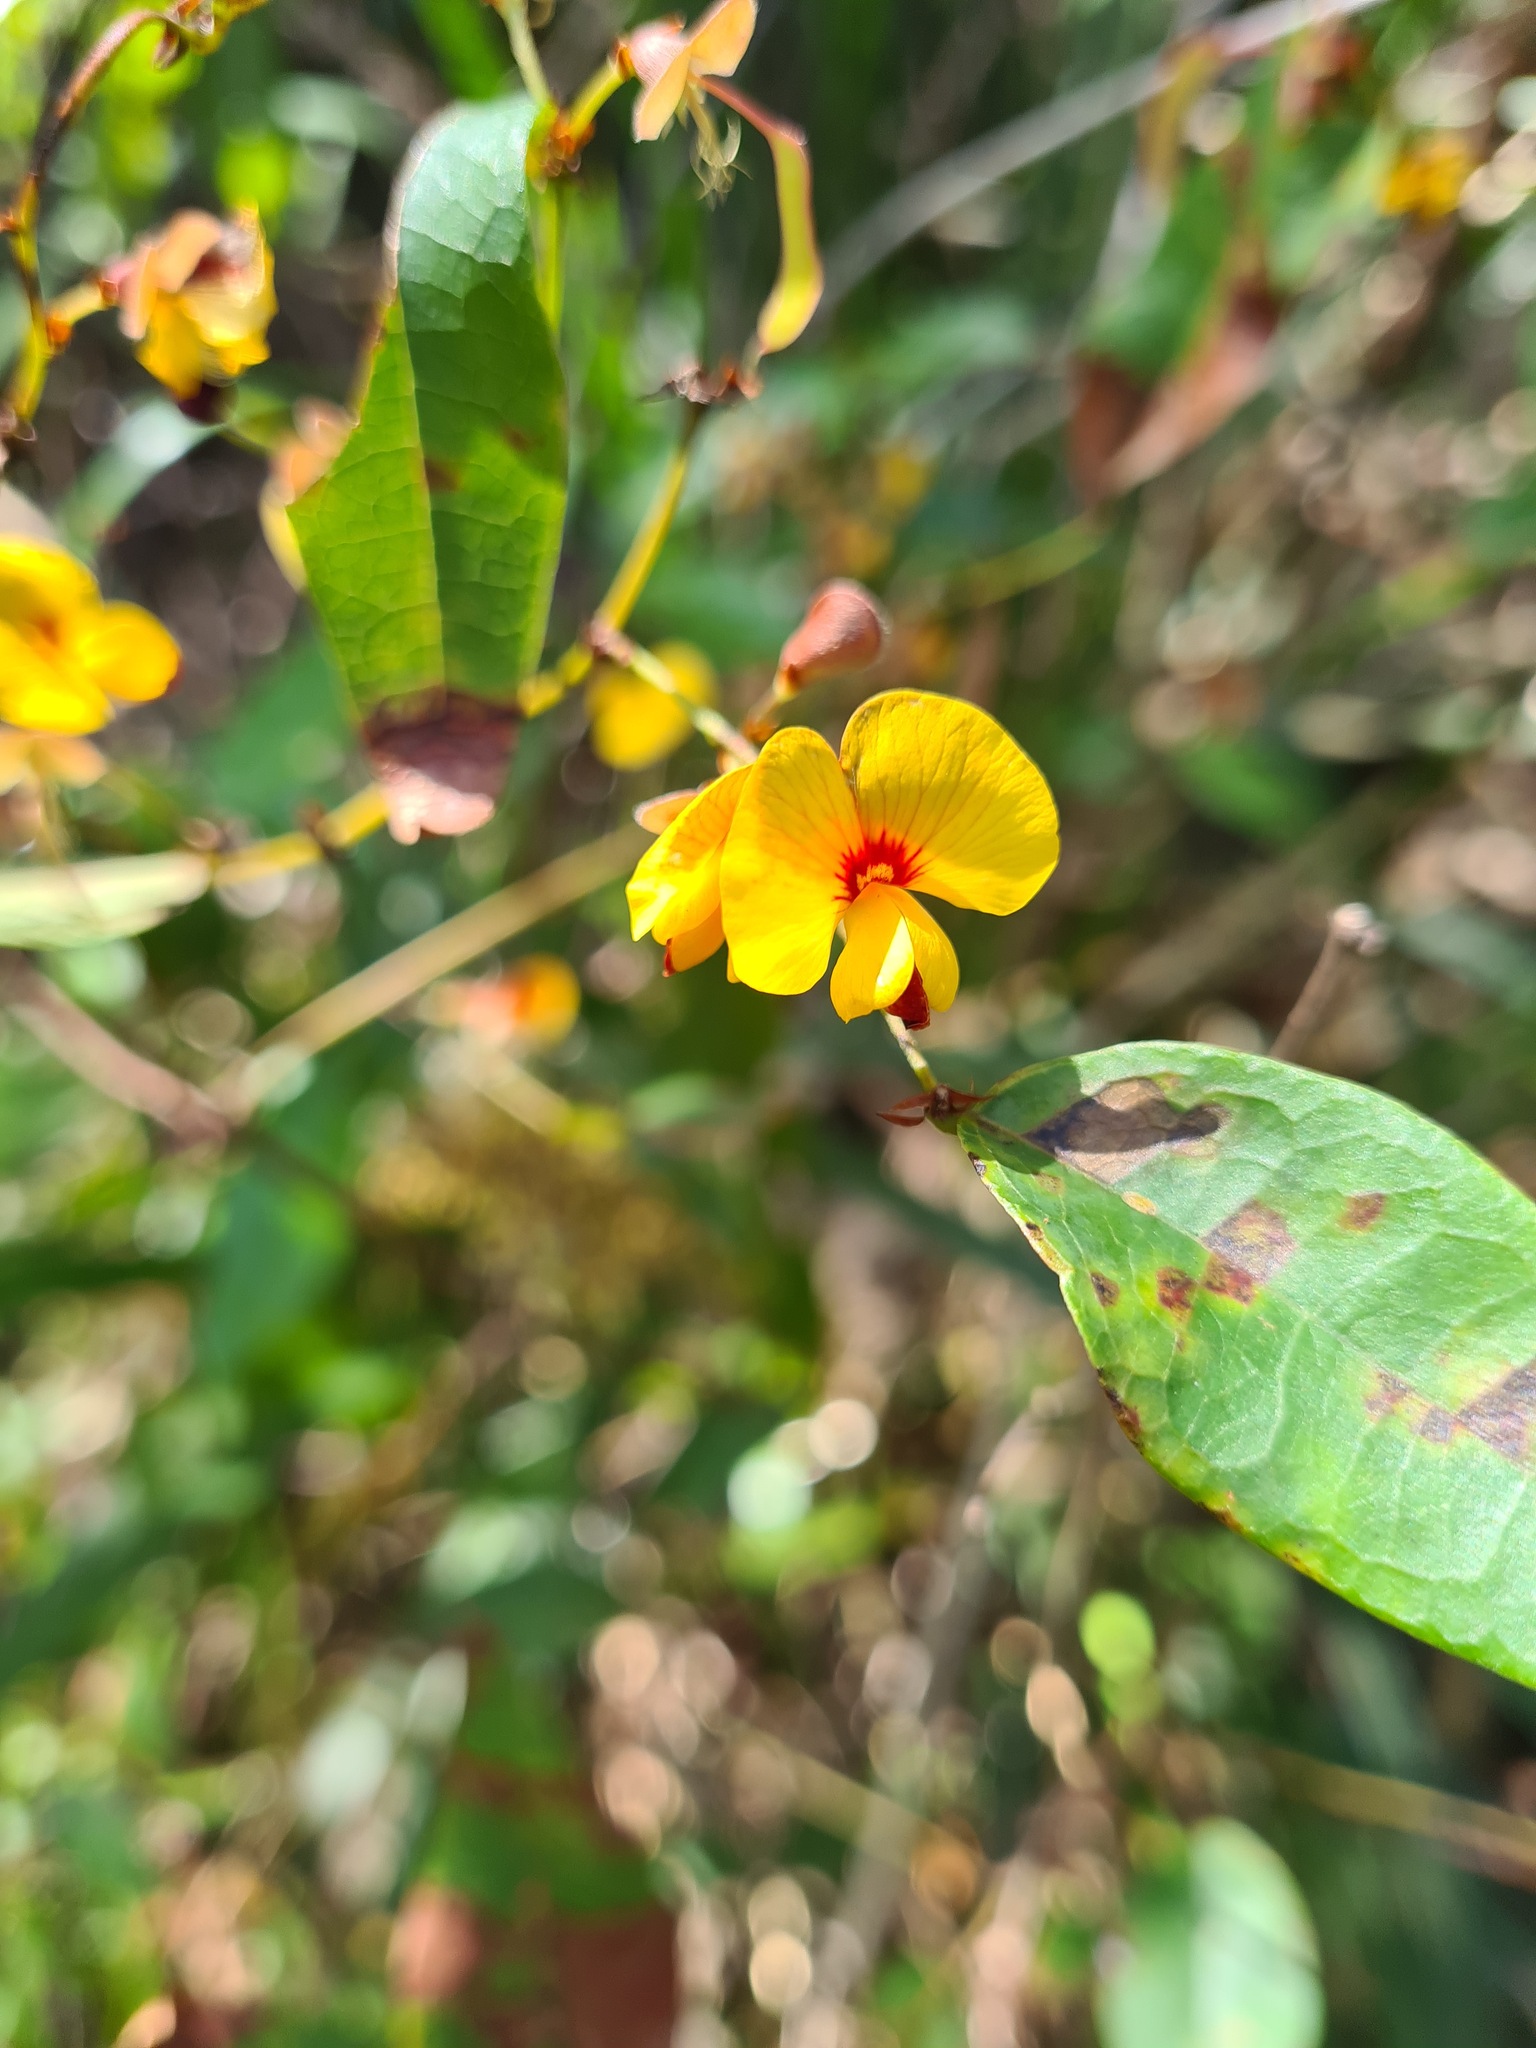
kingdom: Plantae
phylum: Tracheophyta
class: Magnoliopsida
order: Fabales
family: Fabaceae
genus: Platylobium
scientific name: Platylobium formosum
